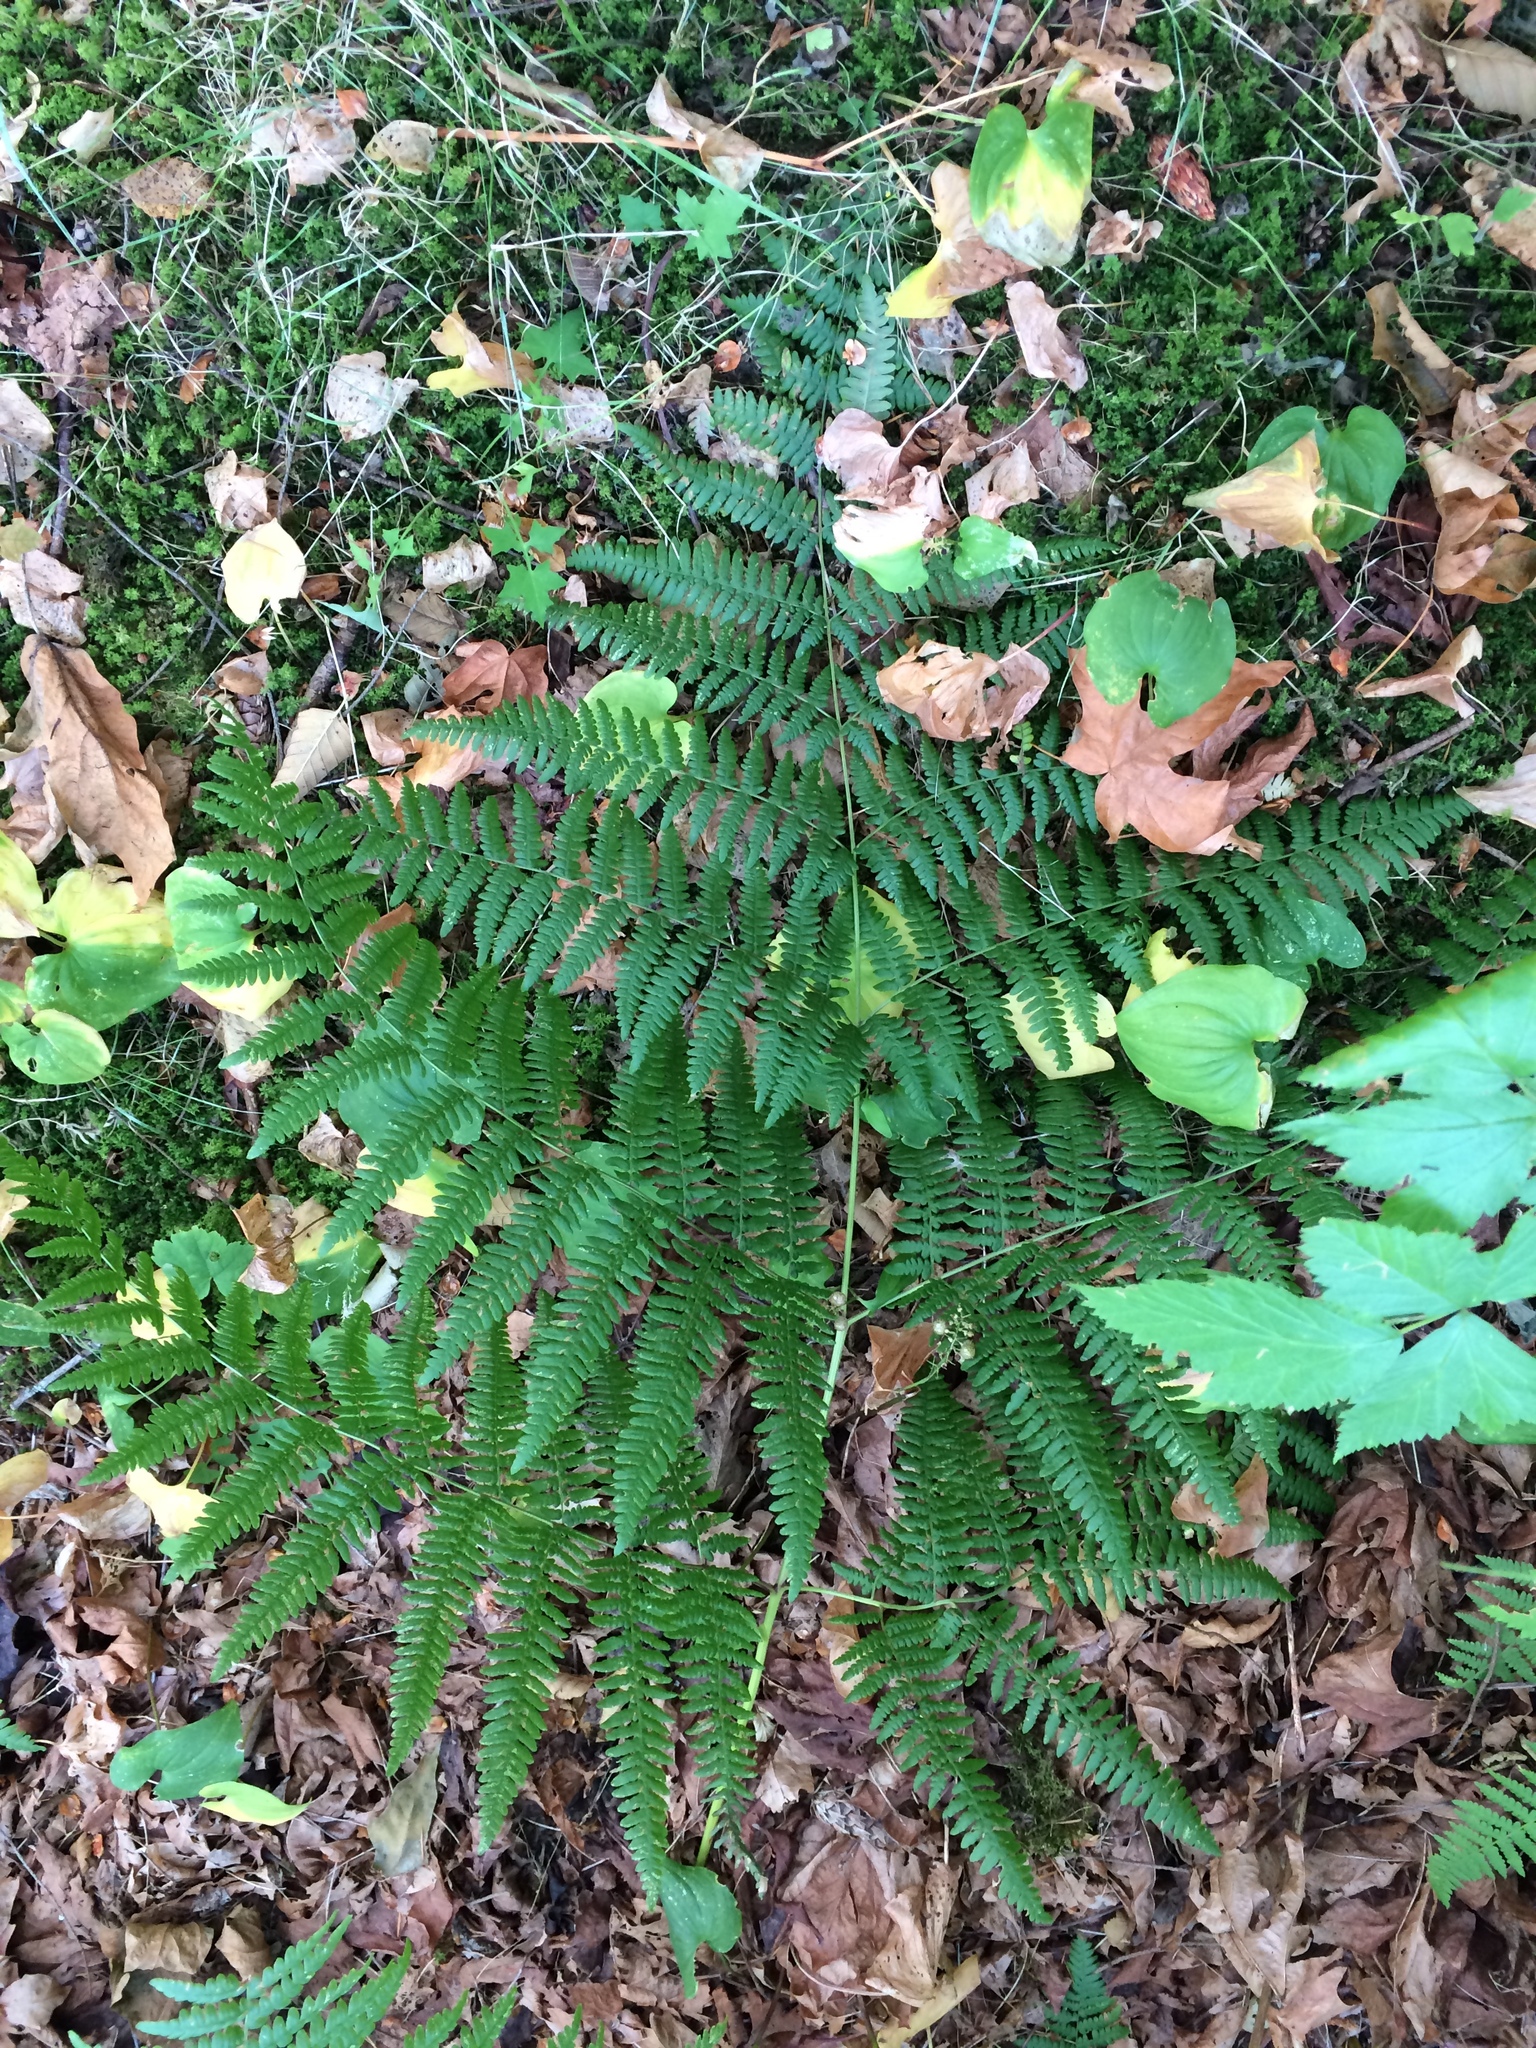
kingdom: Plantae
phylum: Tracheophyta
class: Polypodiopsida
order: Polypodiales
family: Dennstaedtiaceae
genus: Pteridium
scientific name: Pteridium aquilinum
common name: Bracken
